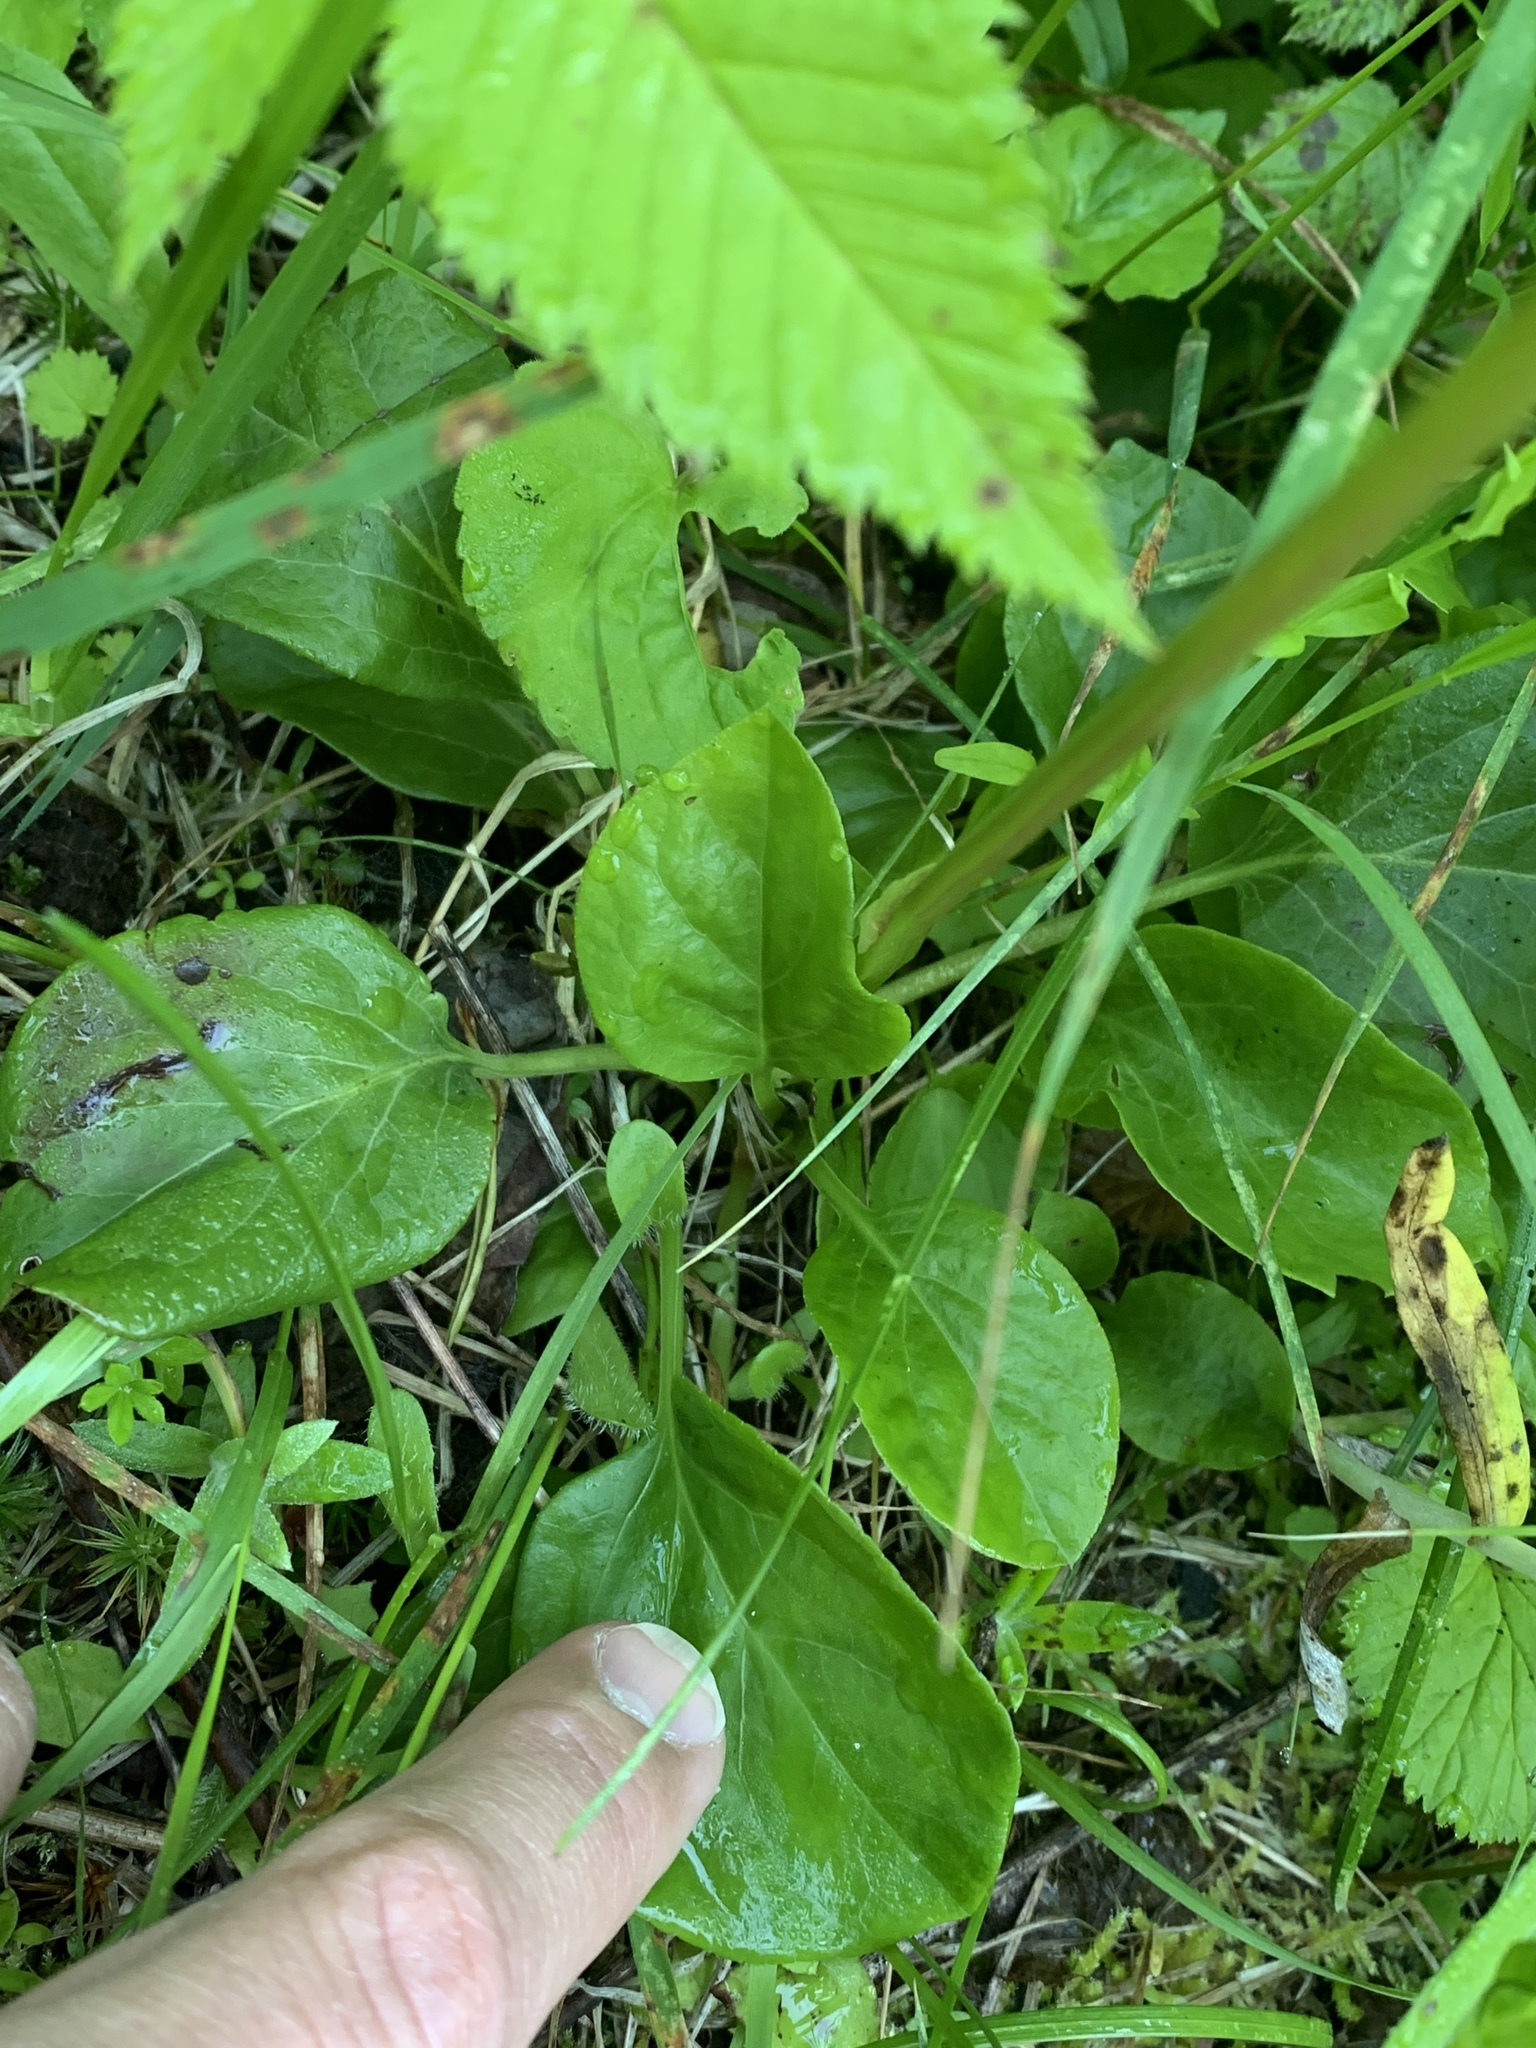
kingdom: Plantae
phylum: Tracheophyta
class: Magnoliopsida
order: Ericales
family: Ericaceae
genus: Pyrola
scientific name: Pyrola asarifolia
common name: Bog wintergreen
